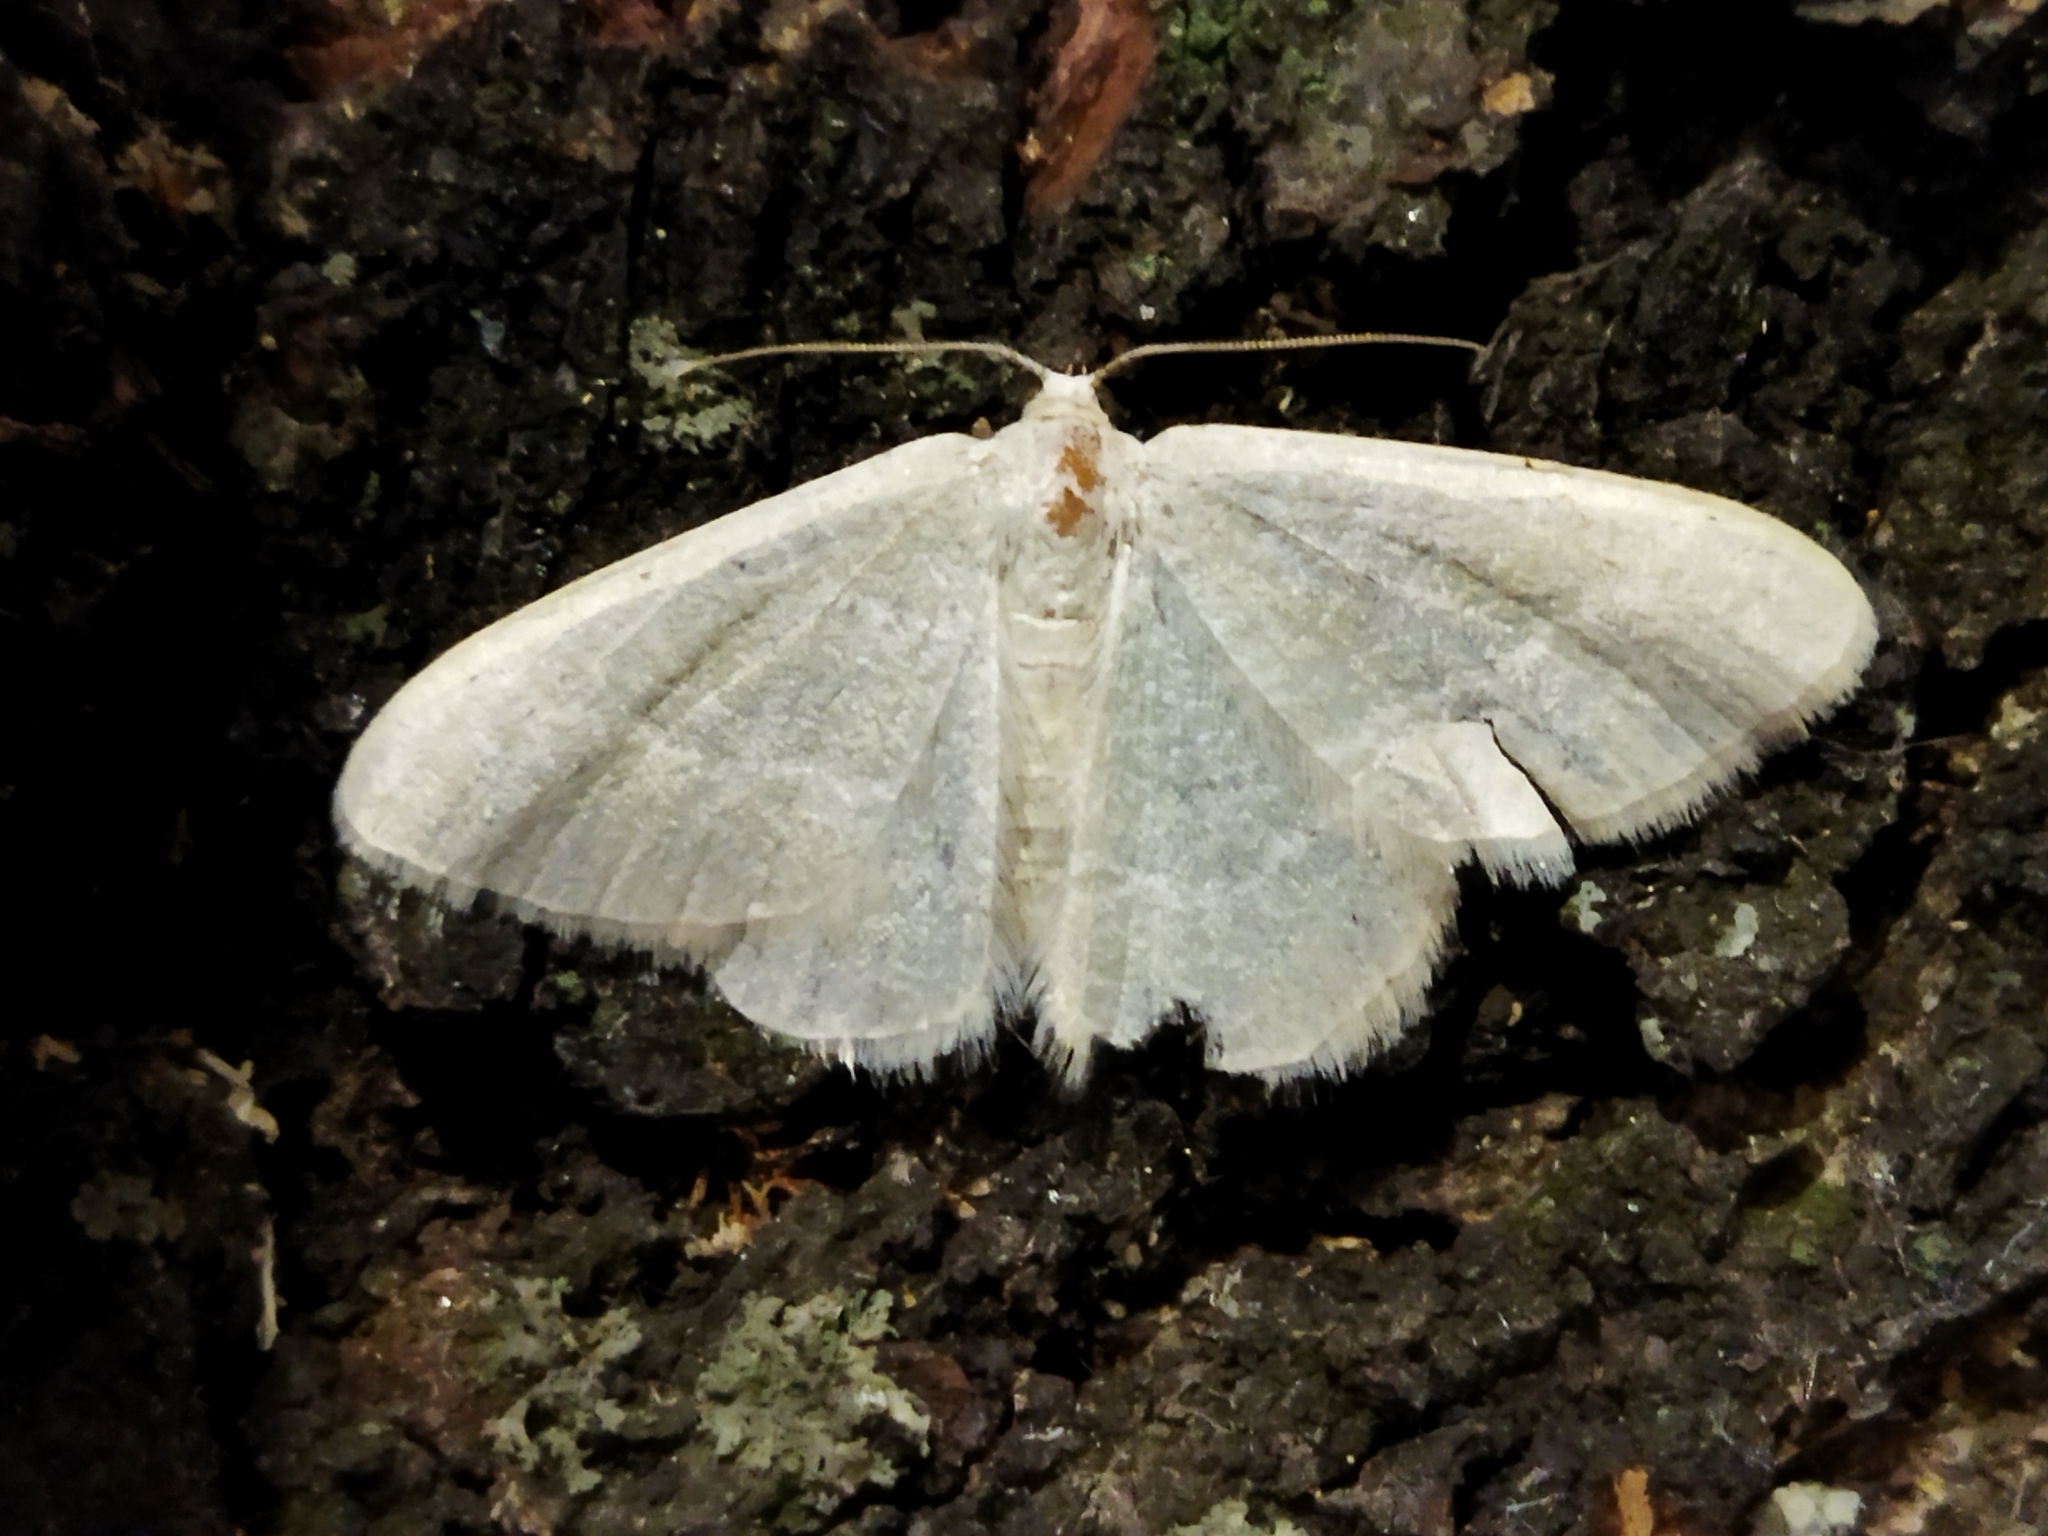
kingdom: Animalia
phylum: Arthropoda
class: Insecta
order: Lepidoptera
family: Geometridae
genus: Chlorissa
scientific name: Chlorissa etruscaria
